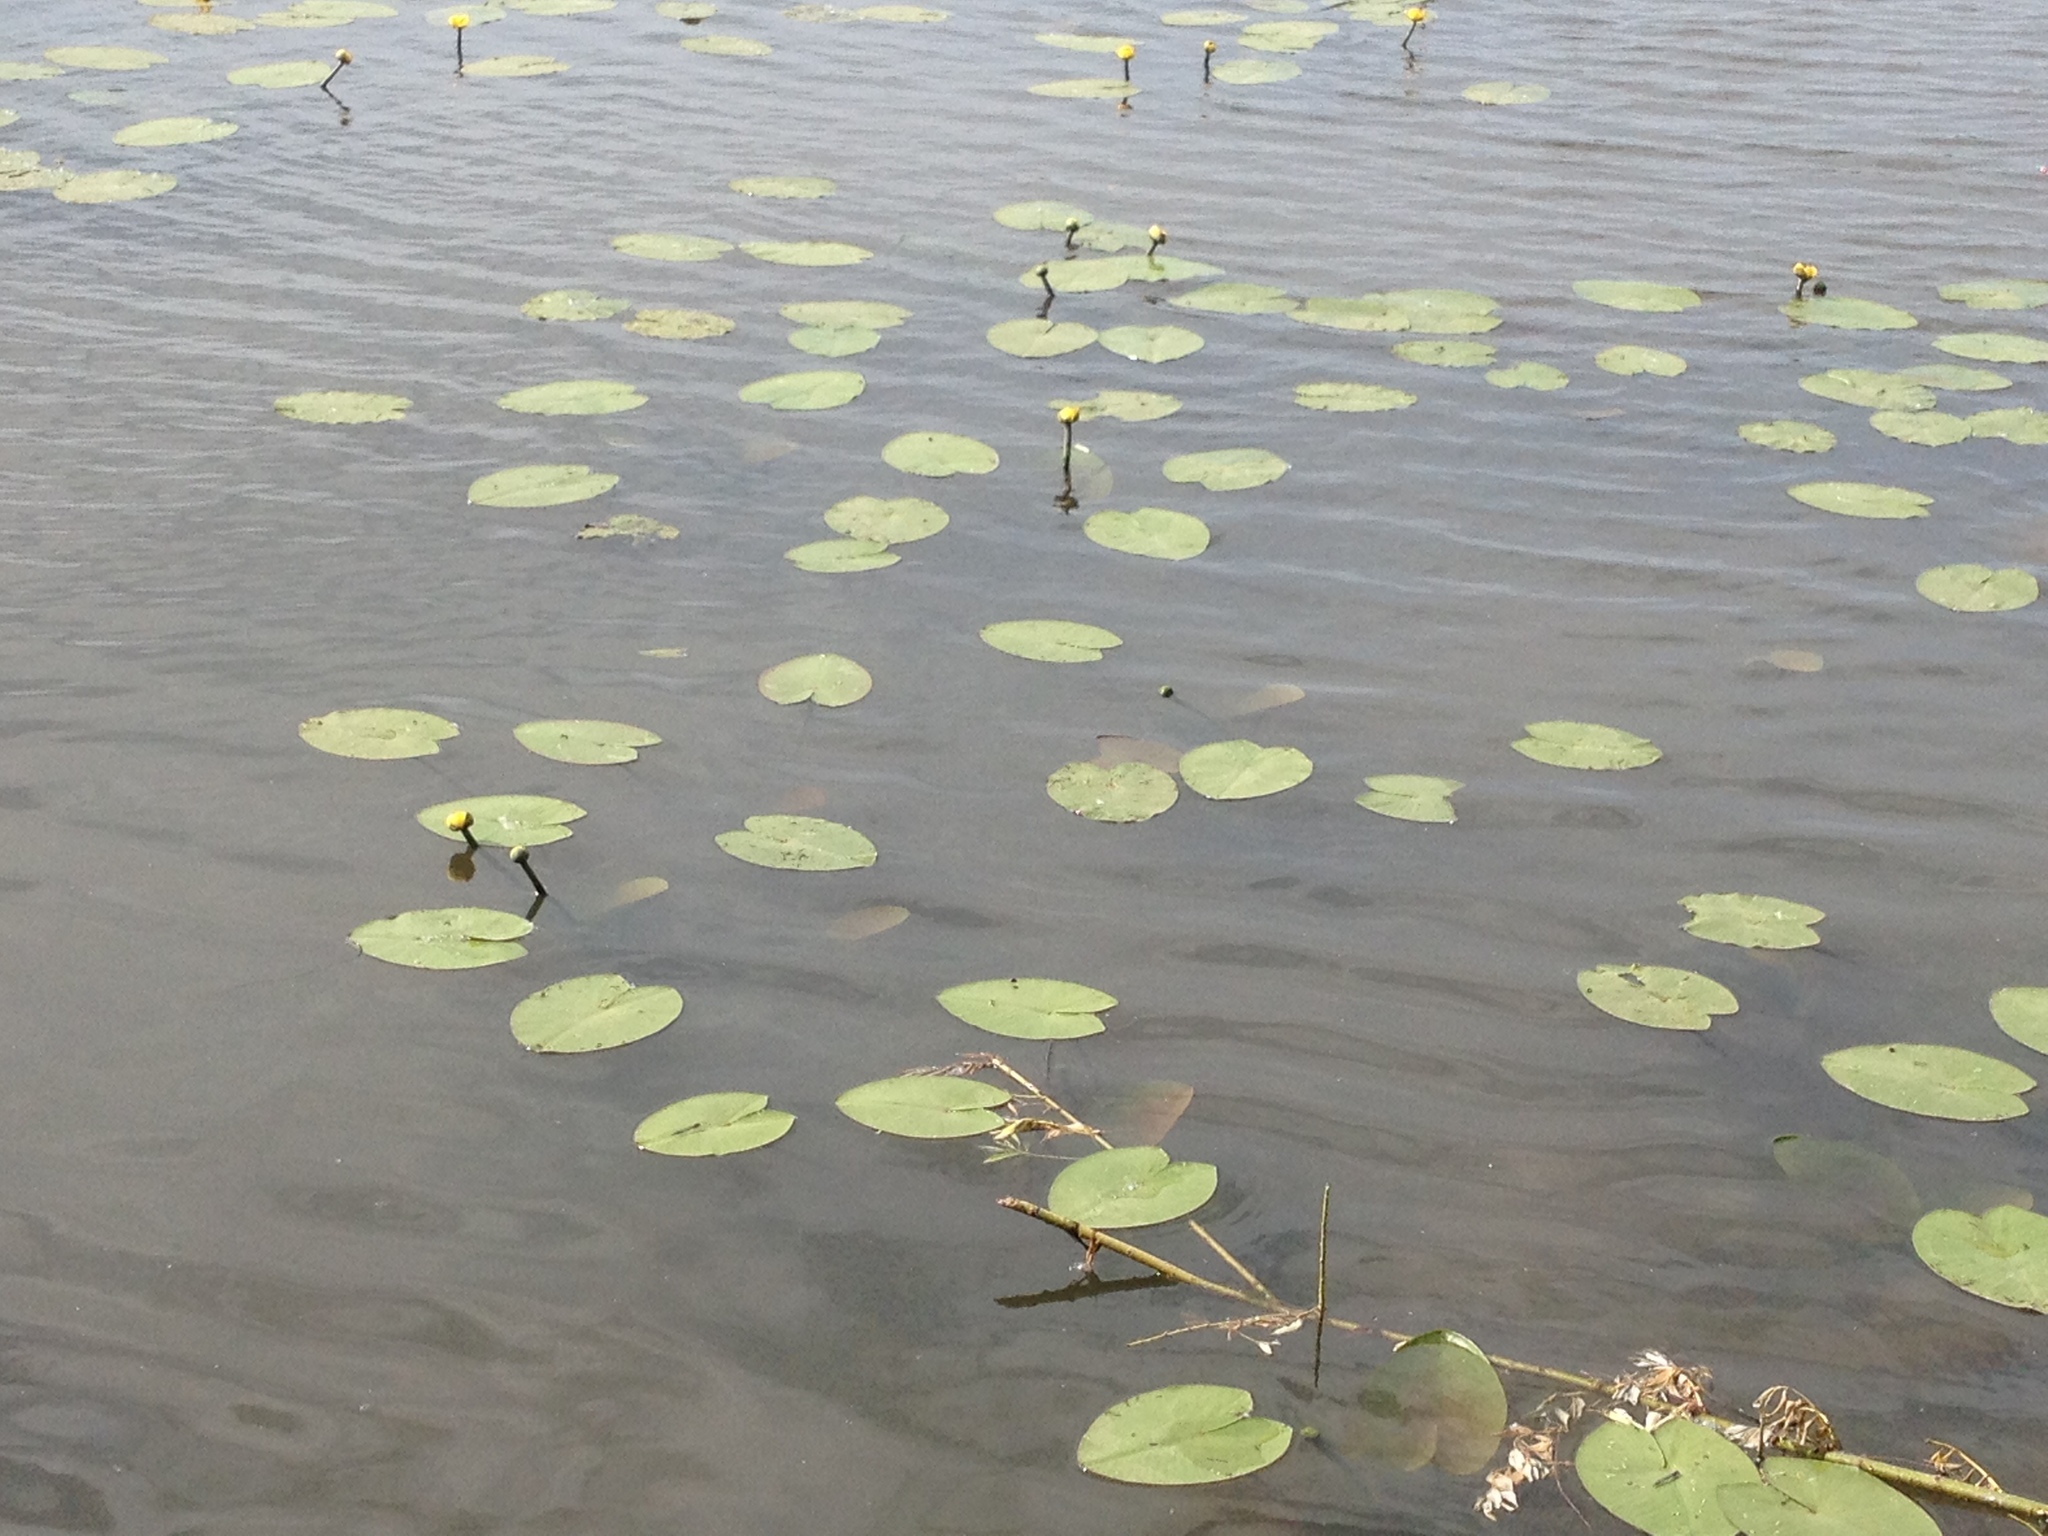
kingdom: Plantae
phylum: Tracheophyta
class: Magnoliopsida
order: Nymphaeales
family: Nymphaeaceae
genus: Nuphar
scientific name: Nuphar lutea
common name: Yellow water-lily
